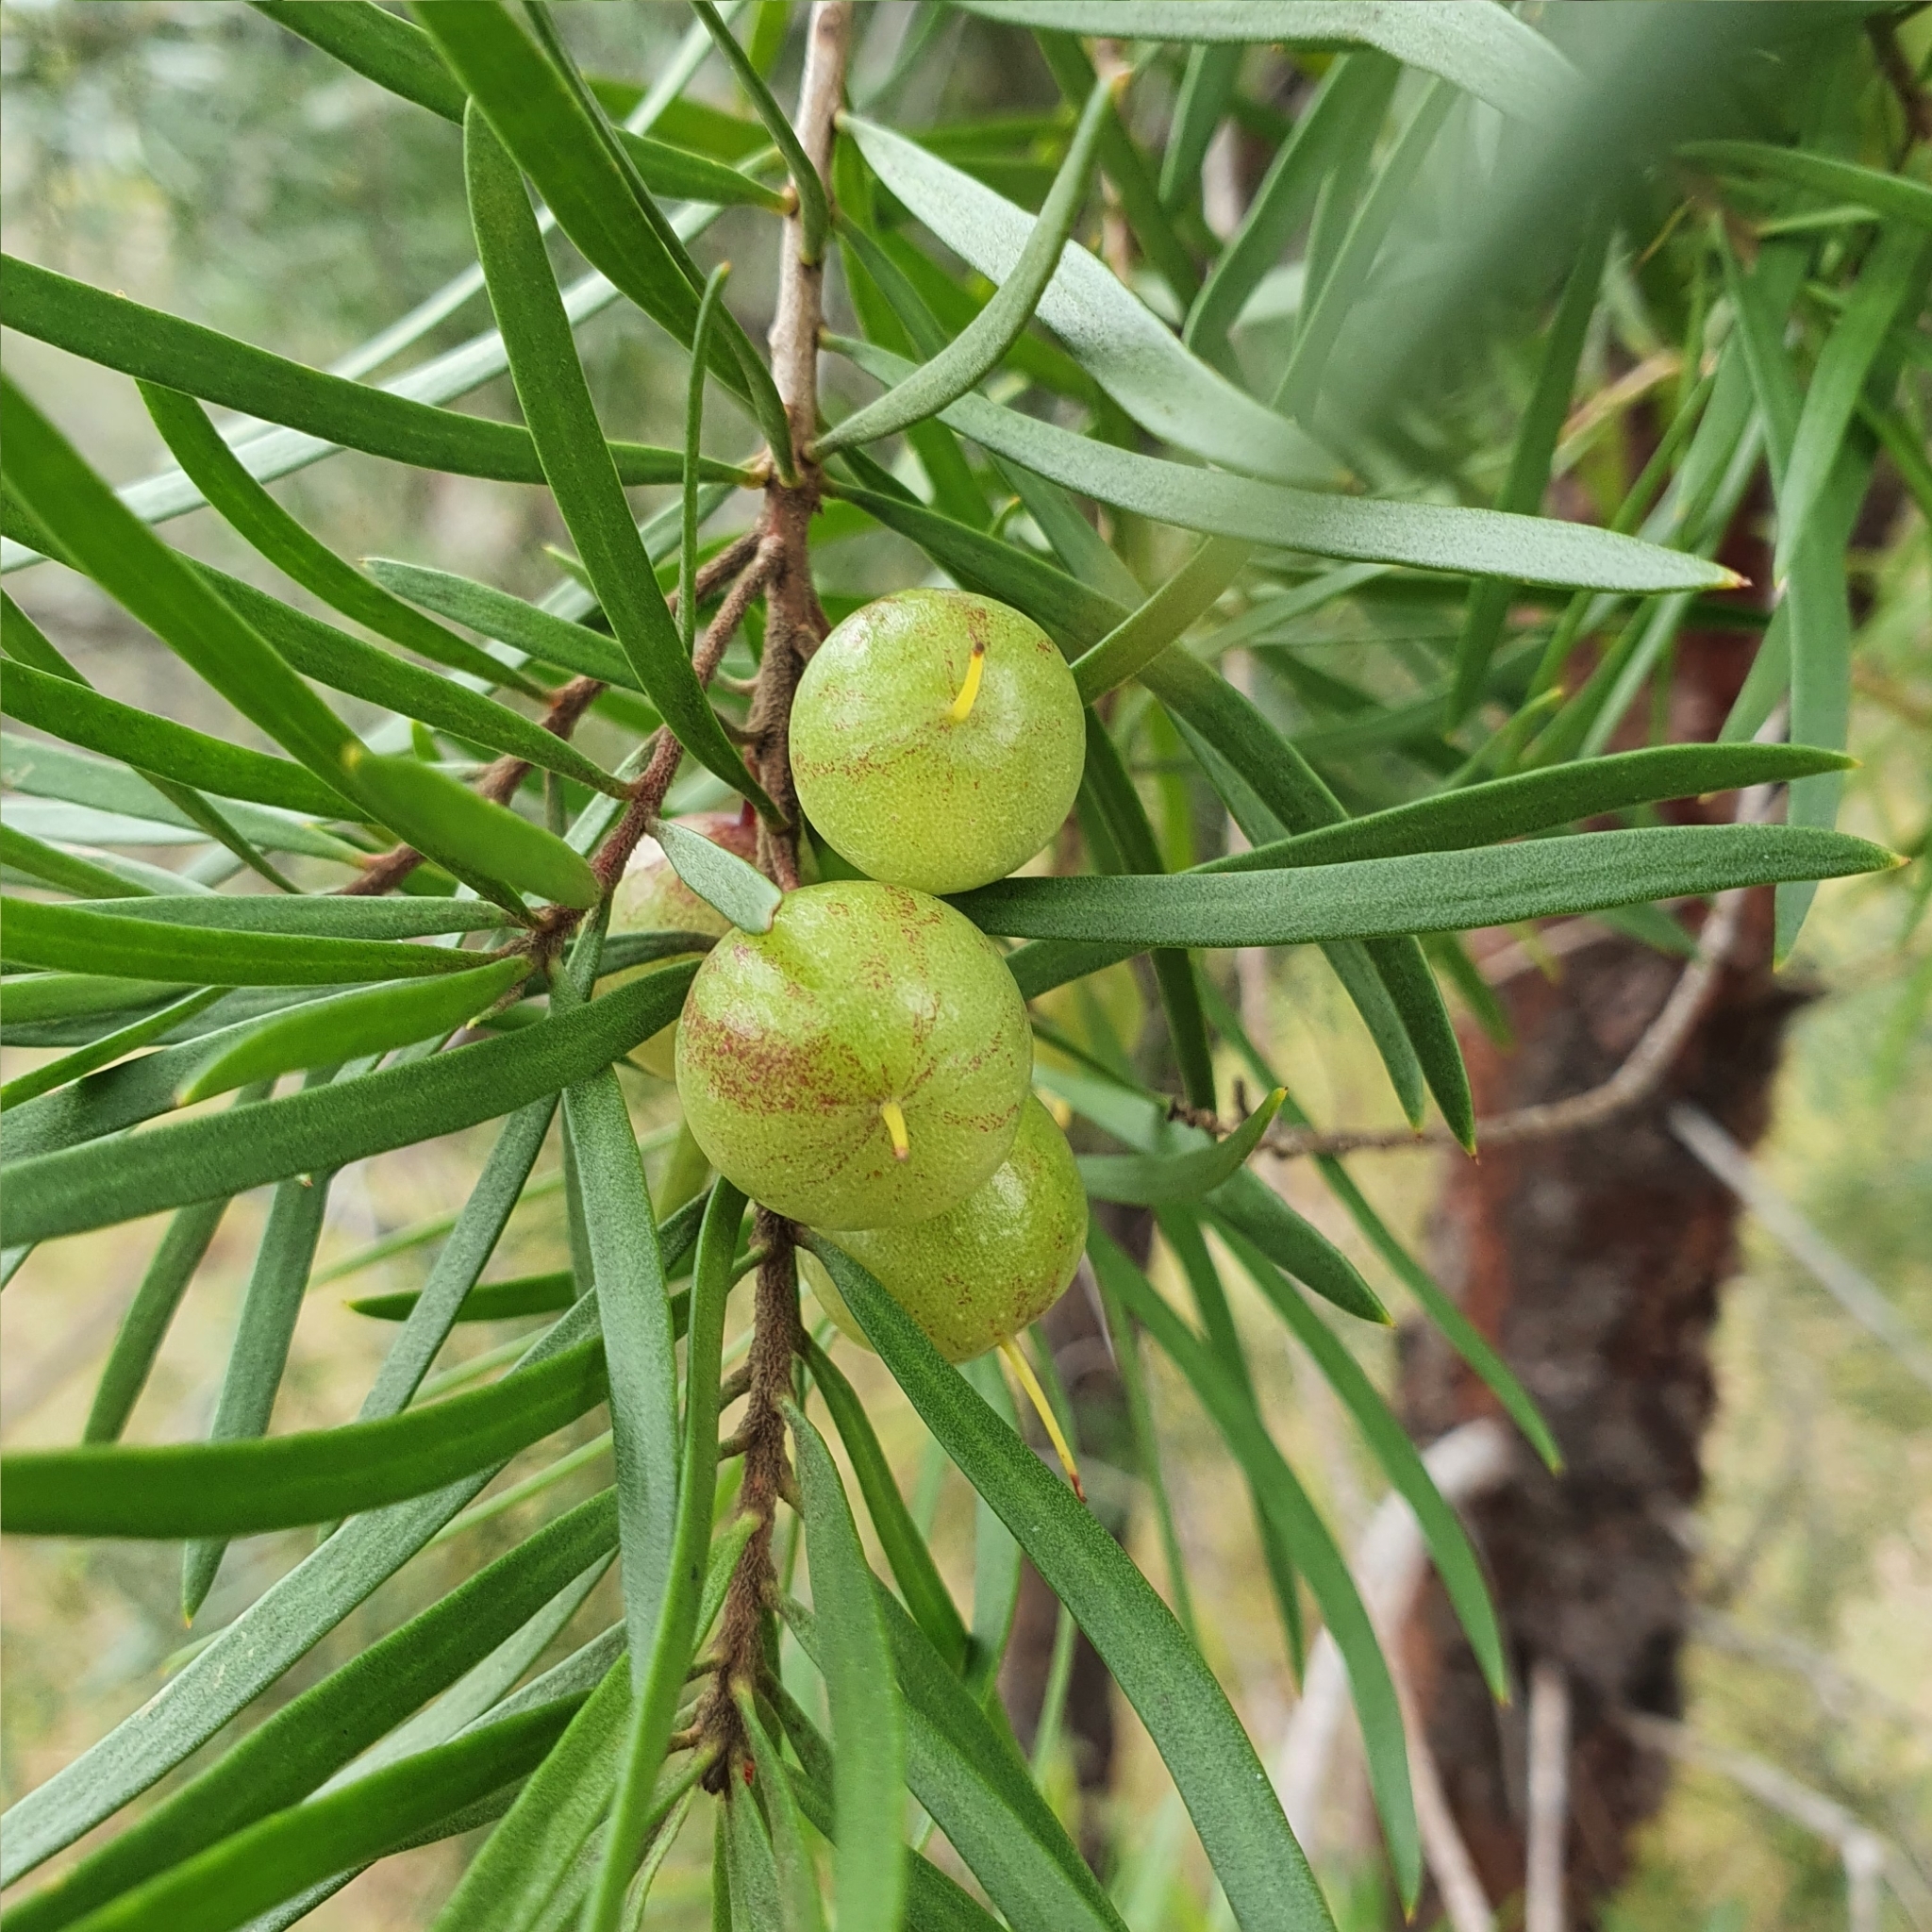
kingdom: Plantae
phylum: Tracheophyta
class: Magnoliopsida
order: Proteales
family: Proteaceae
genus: Persoonia
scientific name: Persoonia linearis
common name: Narrow-leaf geebung
